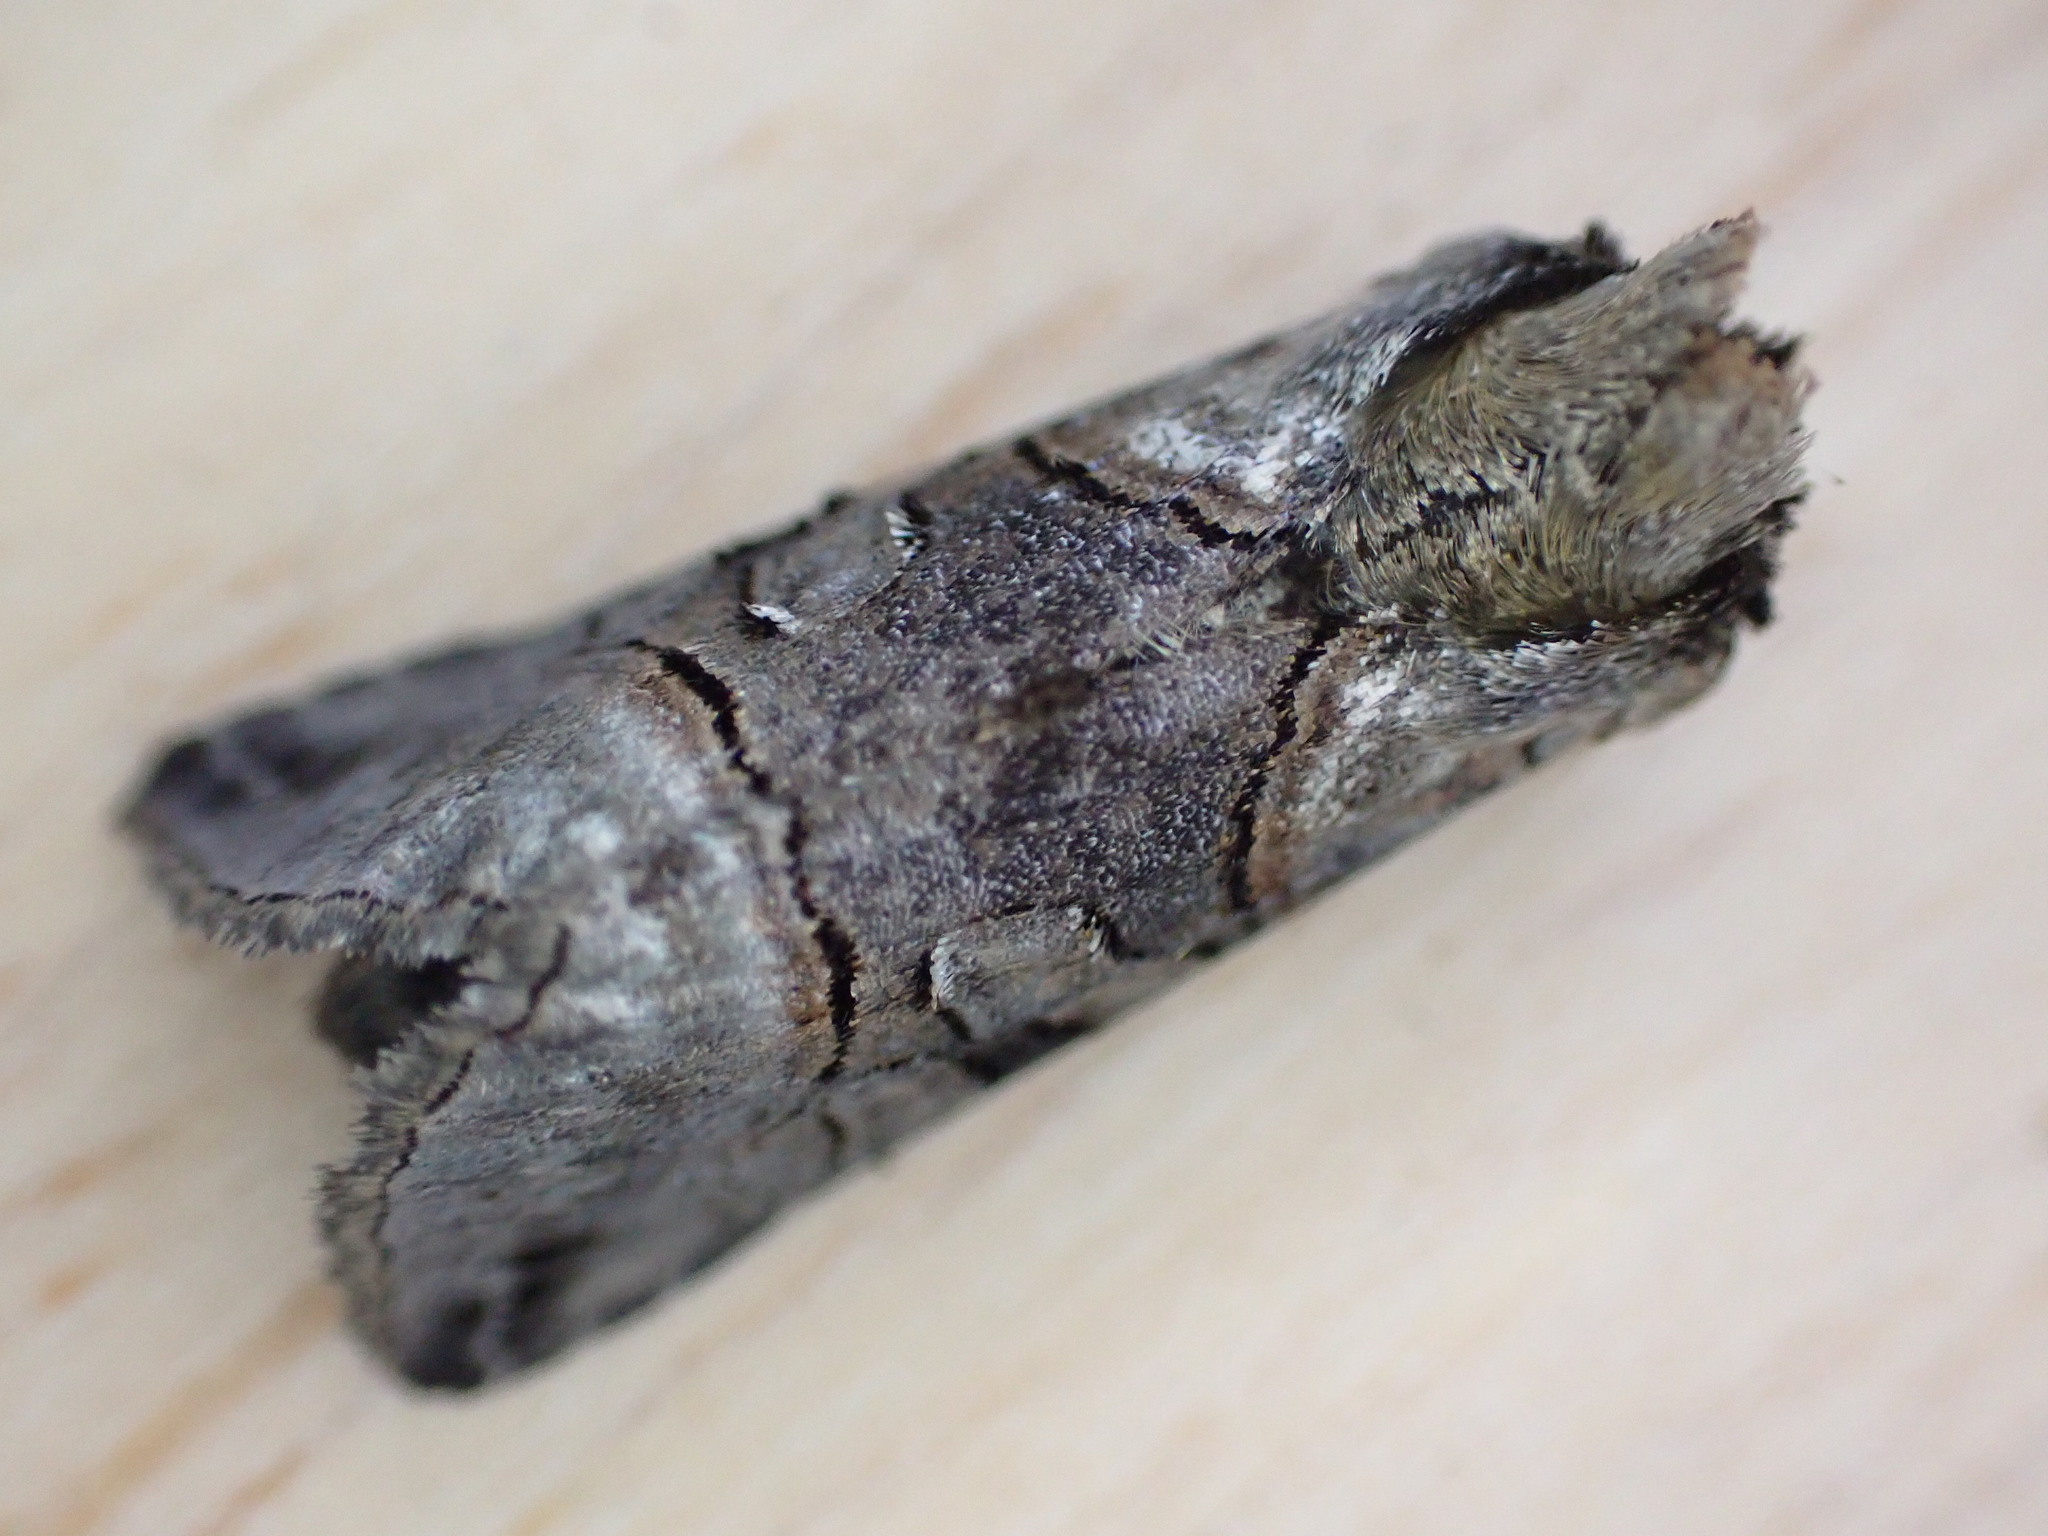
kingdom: Animalia
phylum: Arthropoda
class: Insecta
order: Lepidoptera
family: Noctuidae
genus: Abrostola
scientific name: Abrostola tripartita
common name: Spectacle
